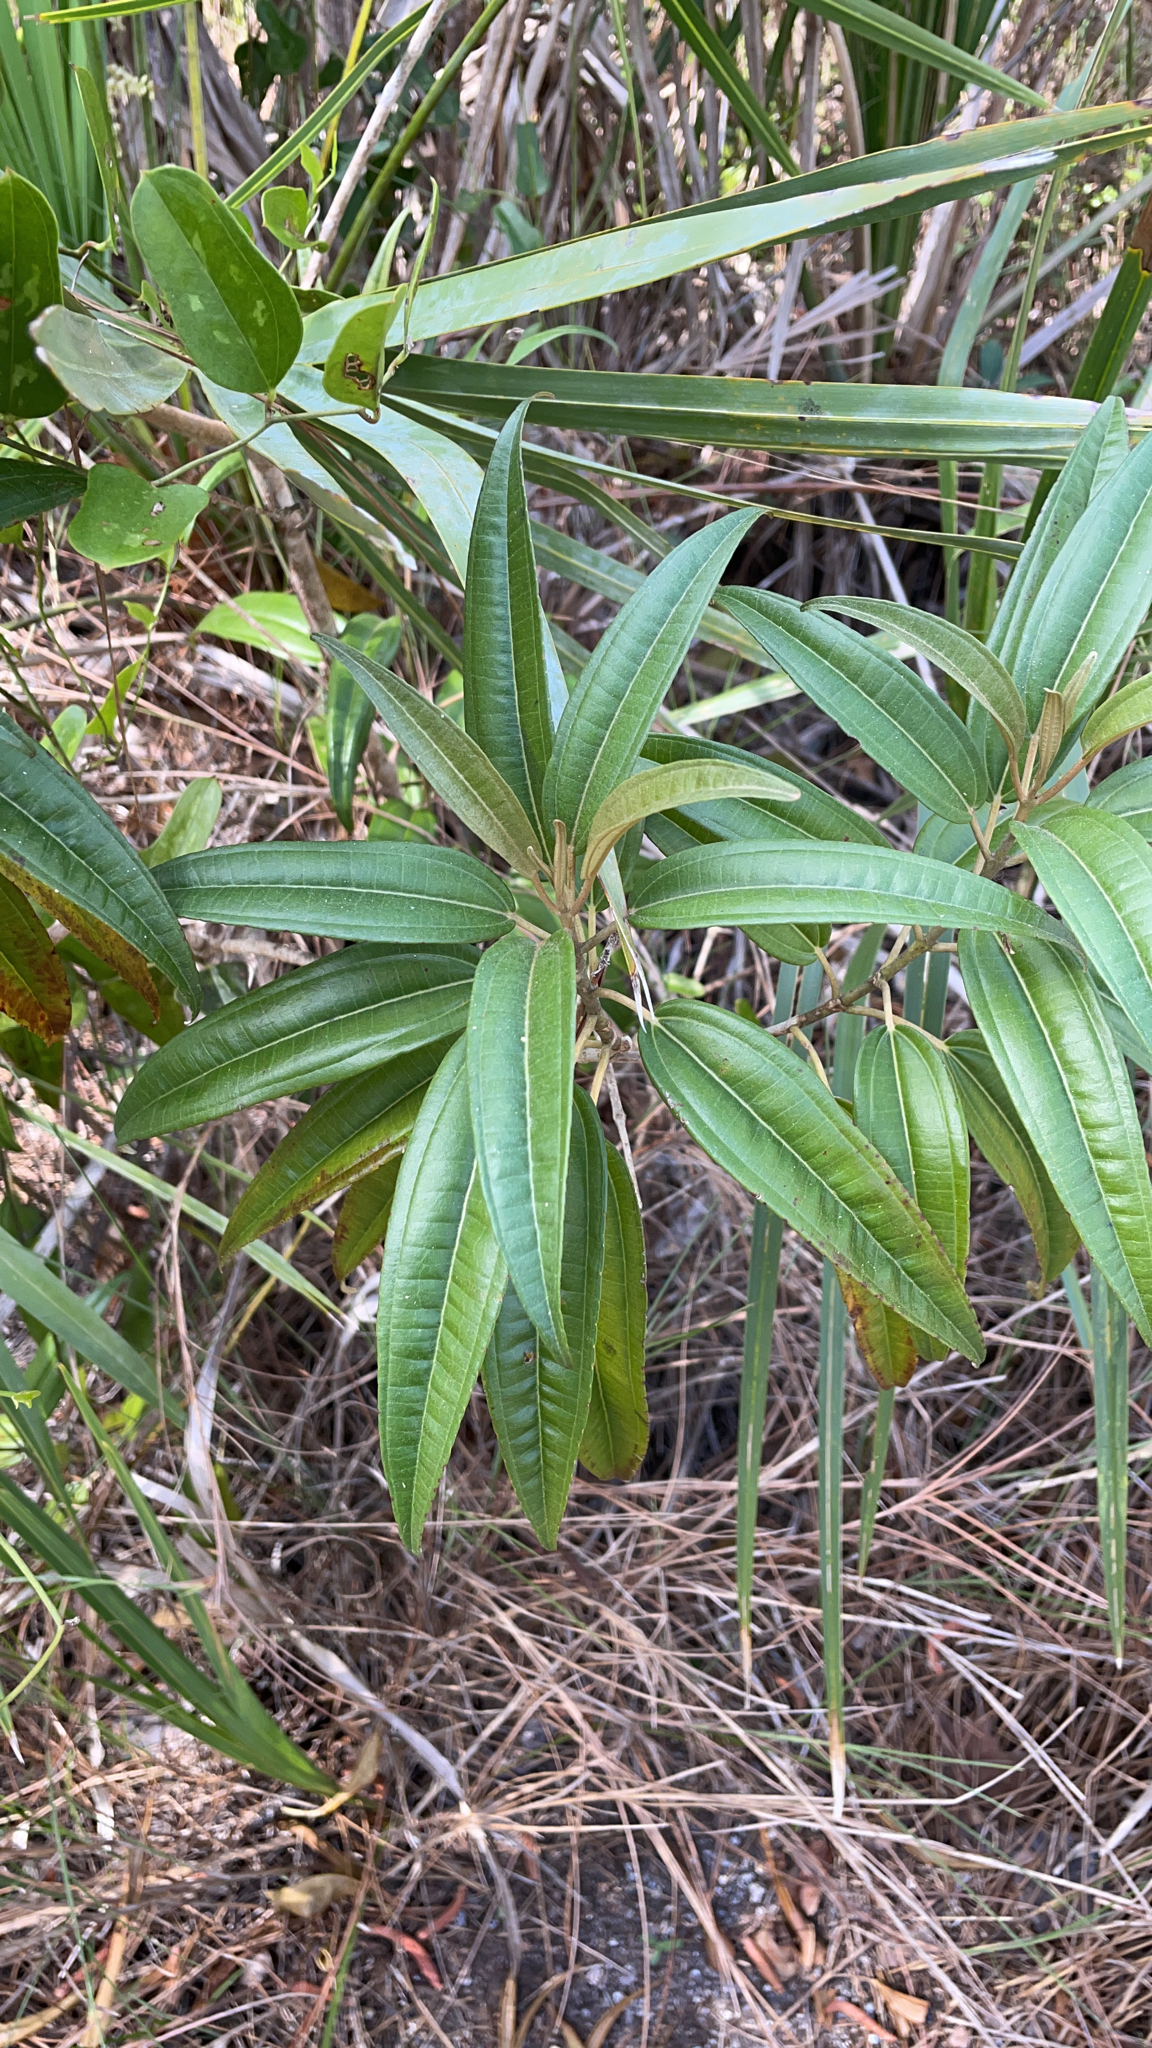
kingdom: Plantae
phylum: Tracheophyta
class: Magnoliopsida
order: Myrtales
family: Melastomataceae
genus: Miconia
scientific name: Miconia bicolor
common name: Johnnyberry
